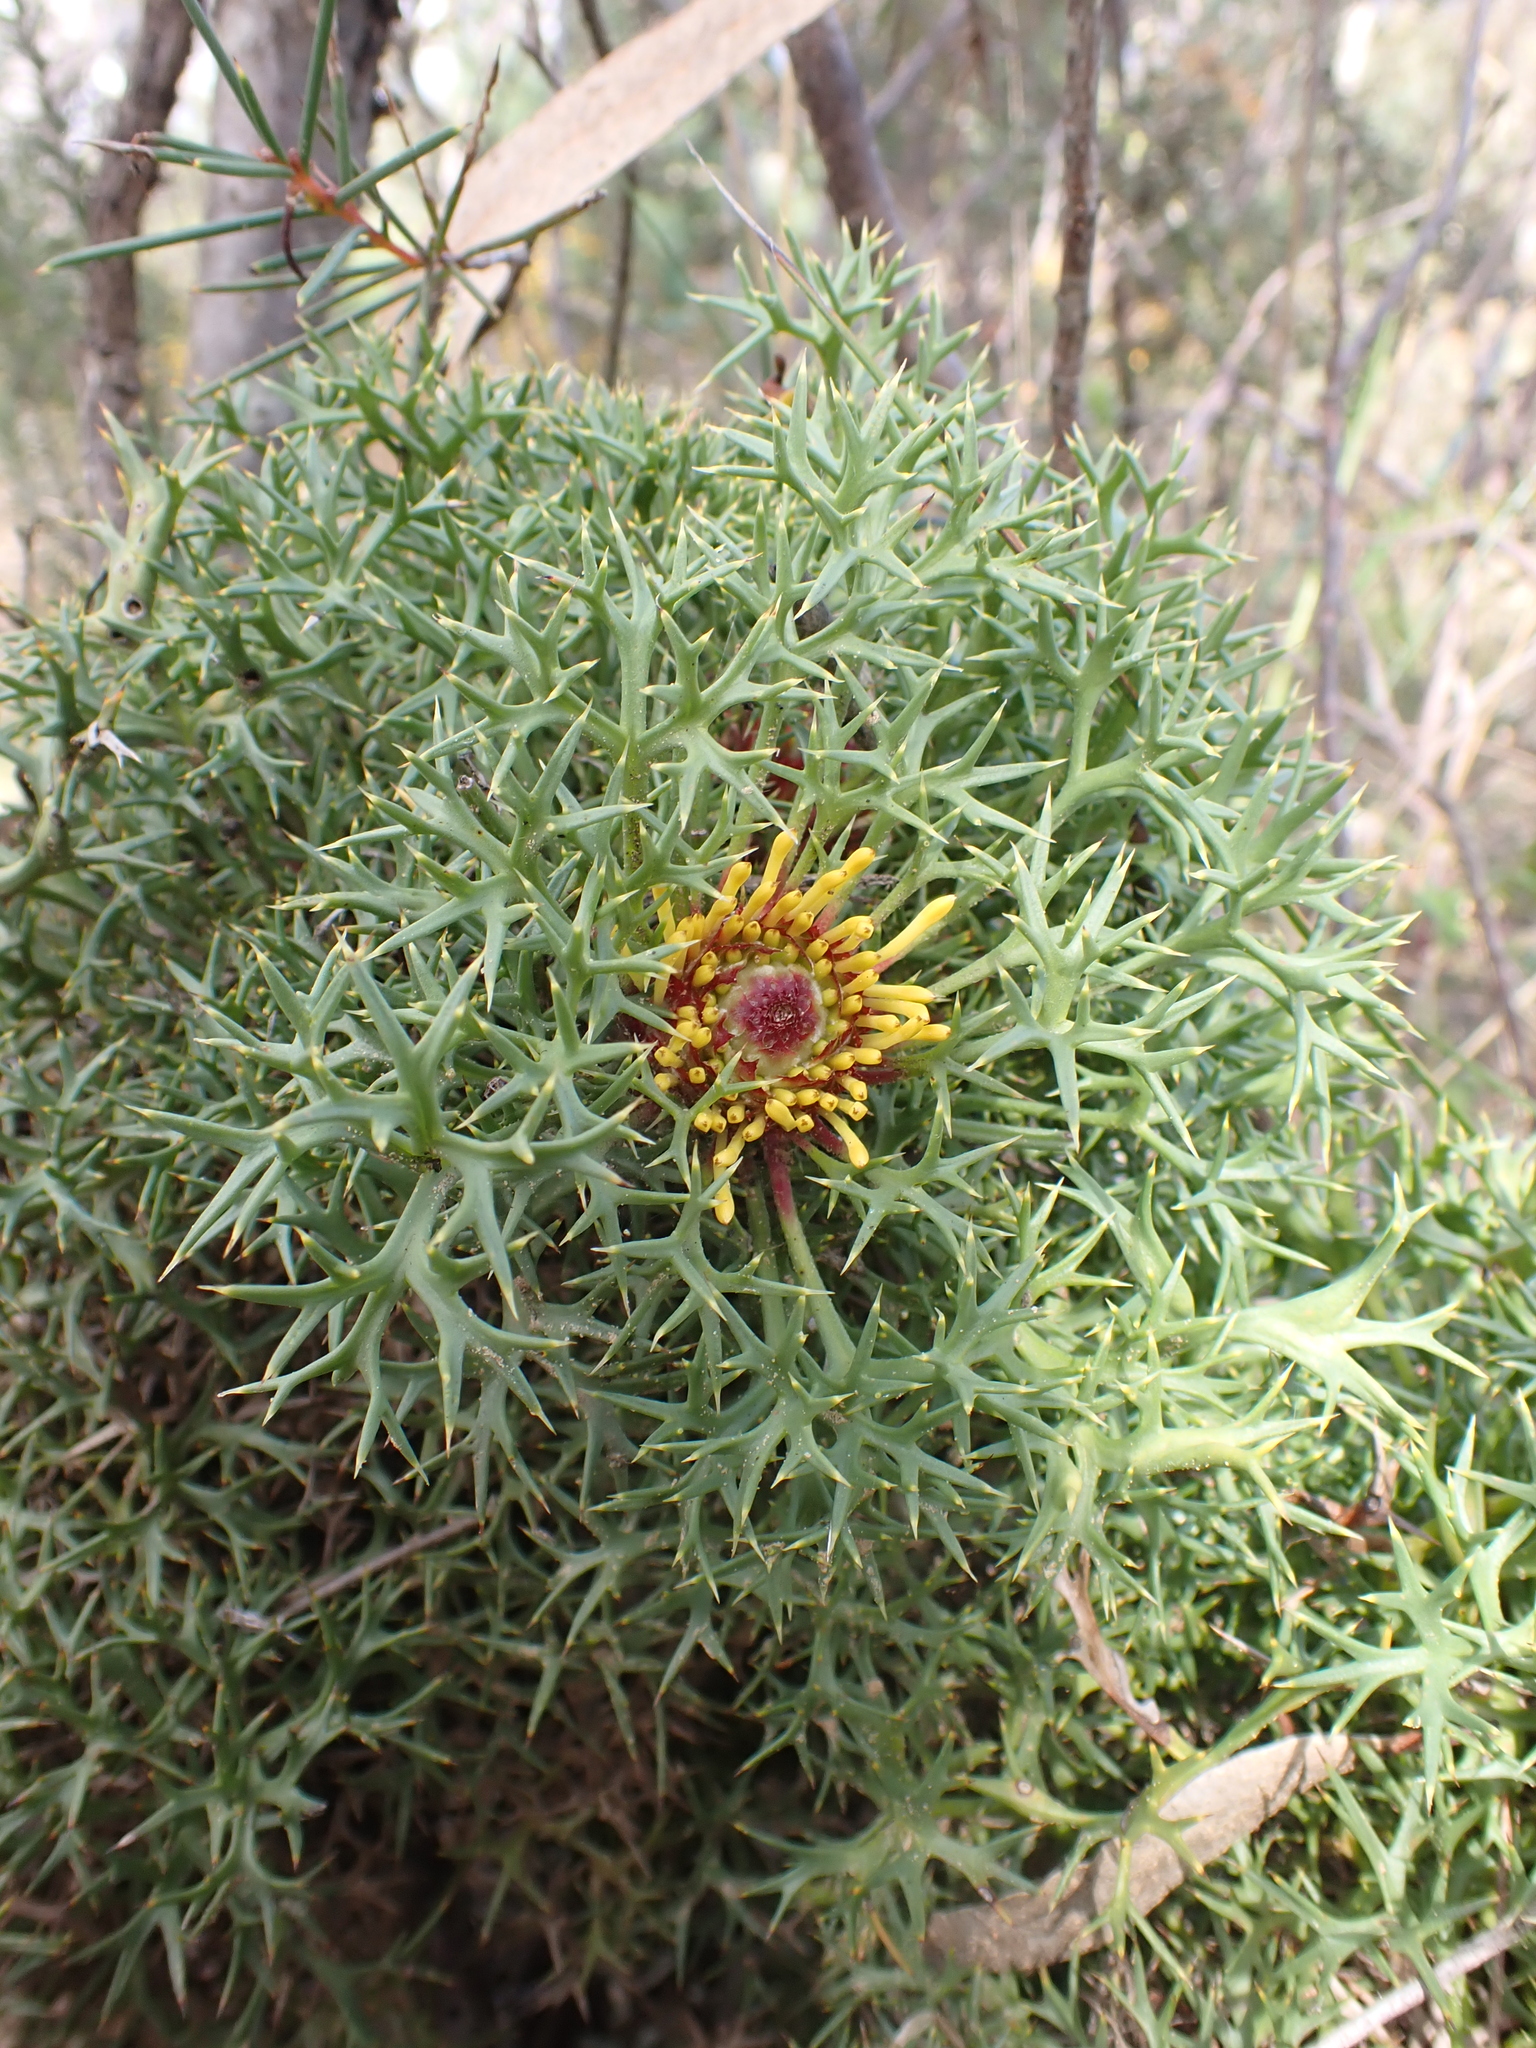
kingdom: Plantae
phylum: Tracheophyta
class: Magnoliopsida
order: Proteales
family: Proteaceae
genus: Isopogon
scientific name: Isopogon ceratophyllus
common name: Horny cone-bush
